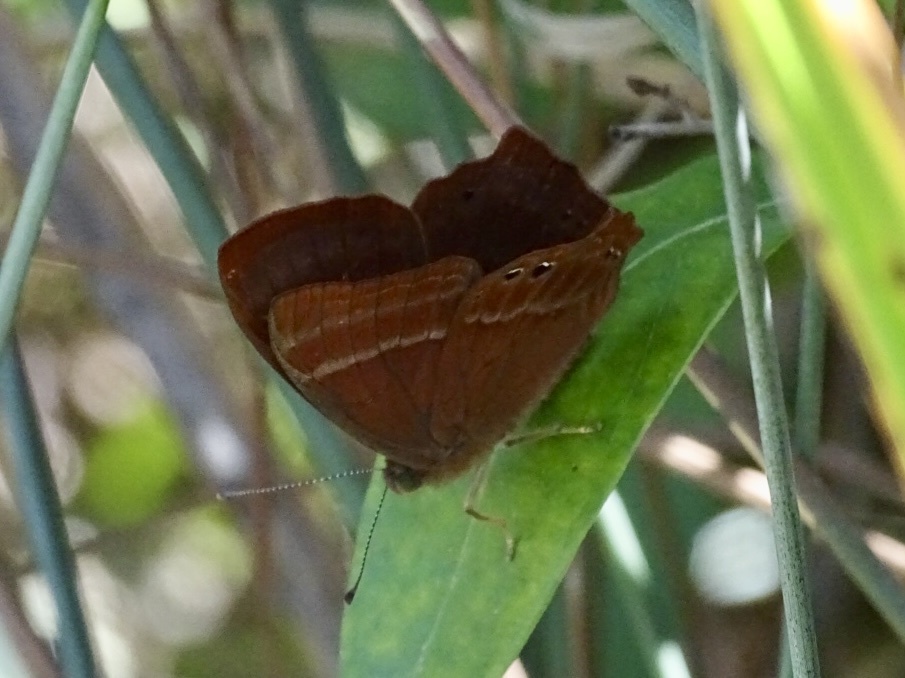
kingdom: Animalia
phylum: Arthropoda
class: Insecta
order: Lepidoptera
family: Lycaenidae
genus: Abisara
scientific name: Abisara echeria
